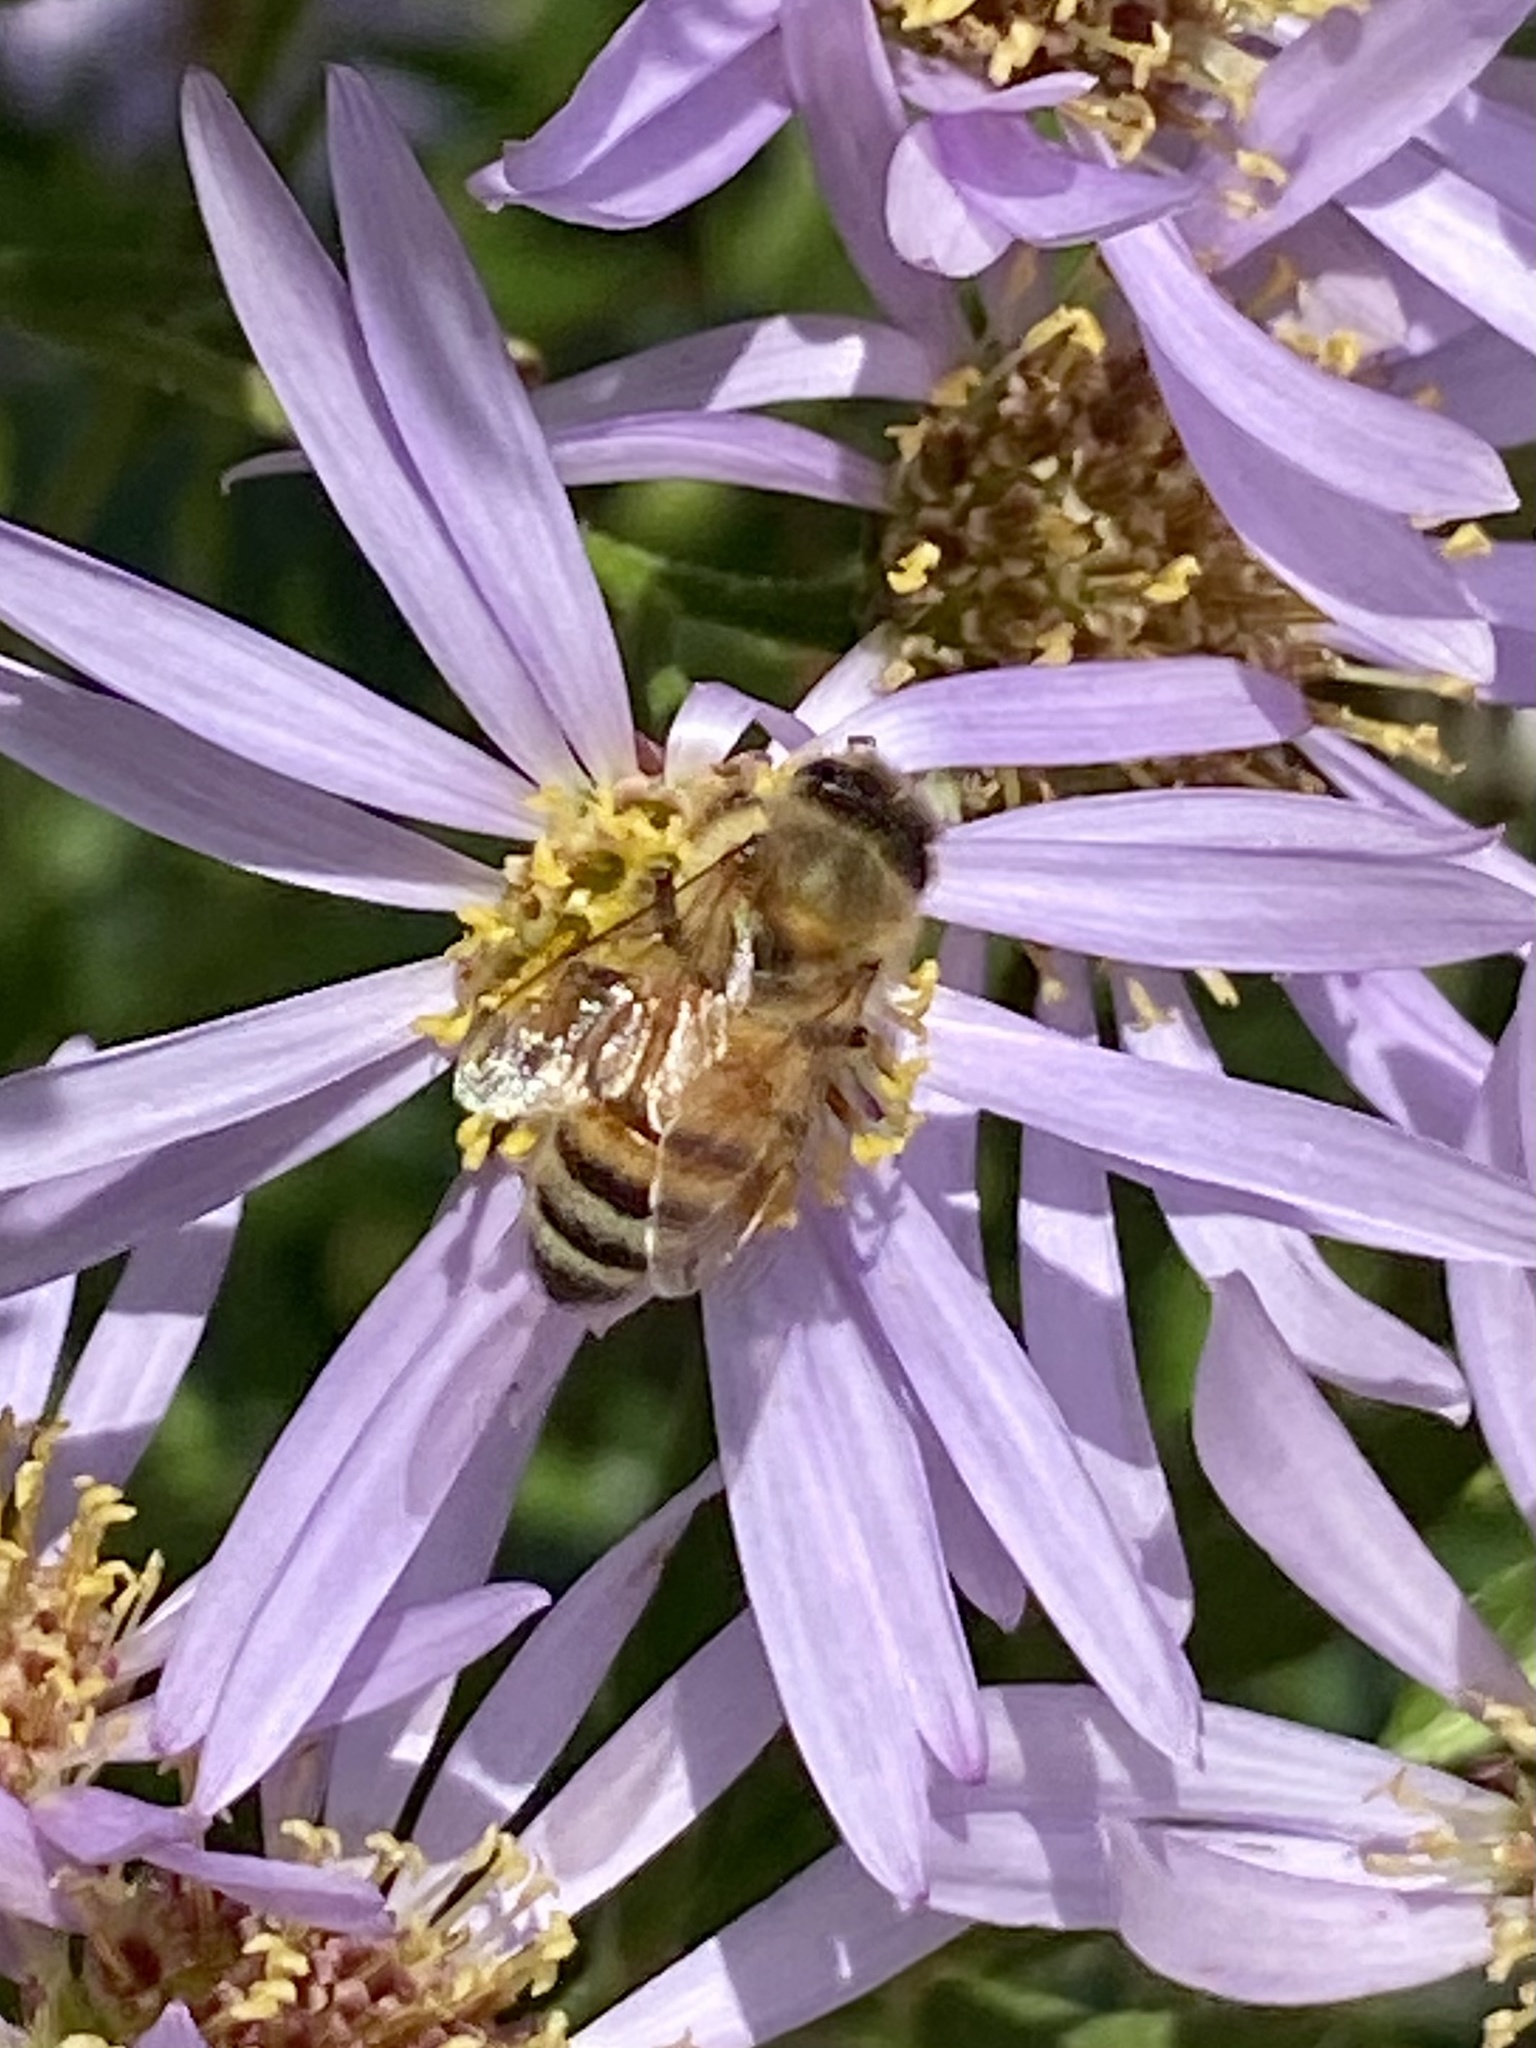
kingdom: Animalia
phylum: Arthropoda
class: Insecta
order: Hymenoptera
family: Apidae
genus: Apis
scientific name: Apis mellifera
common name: Honey bee
